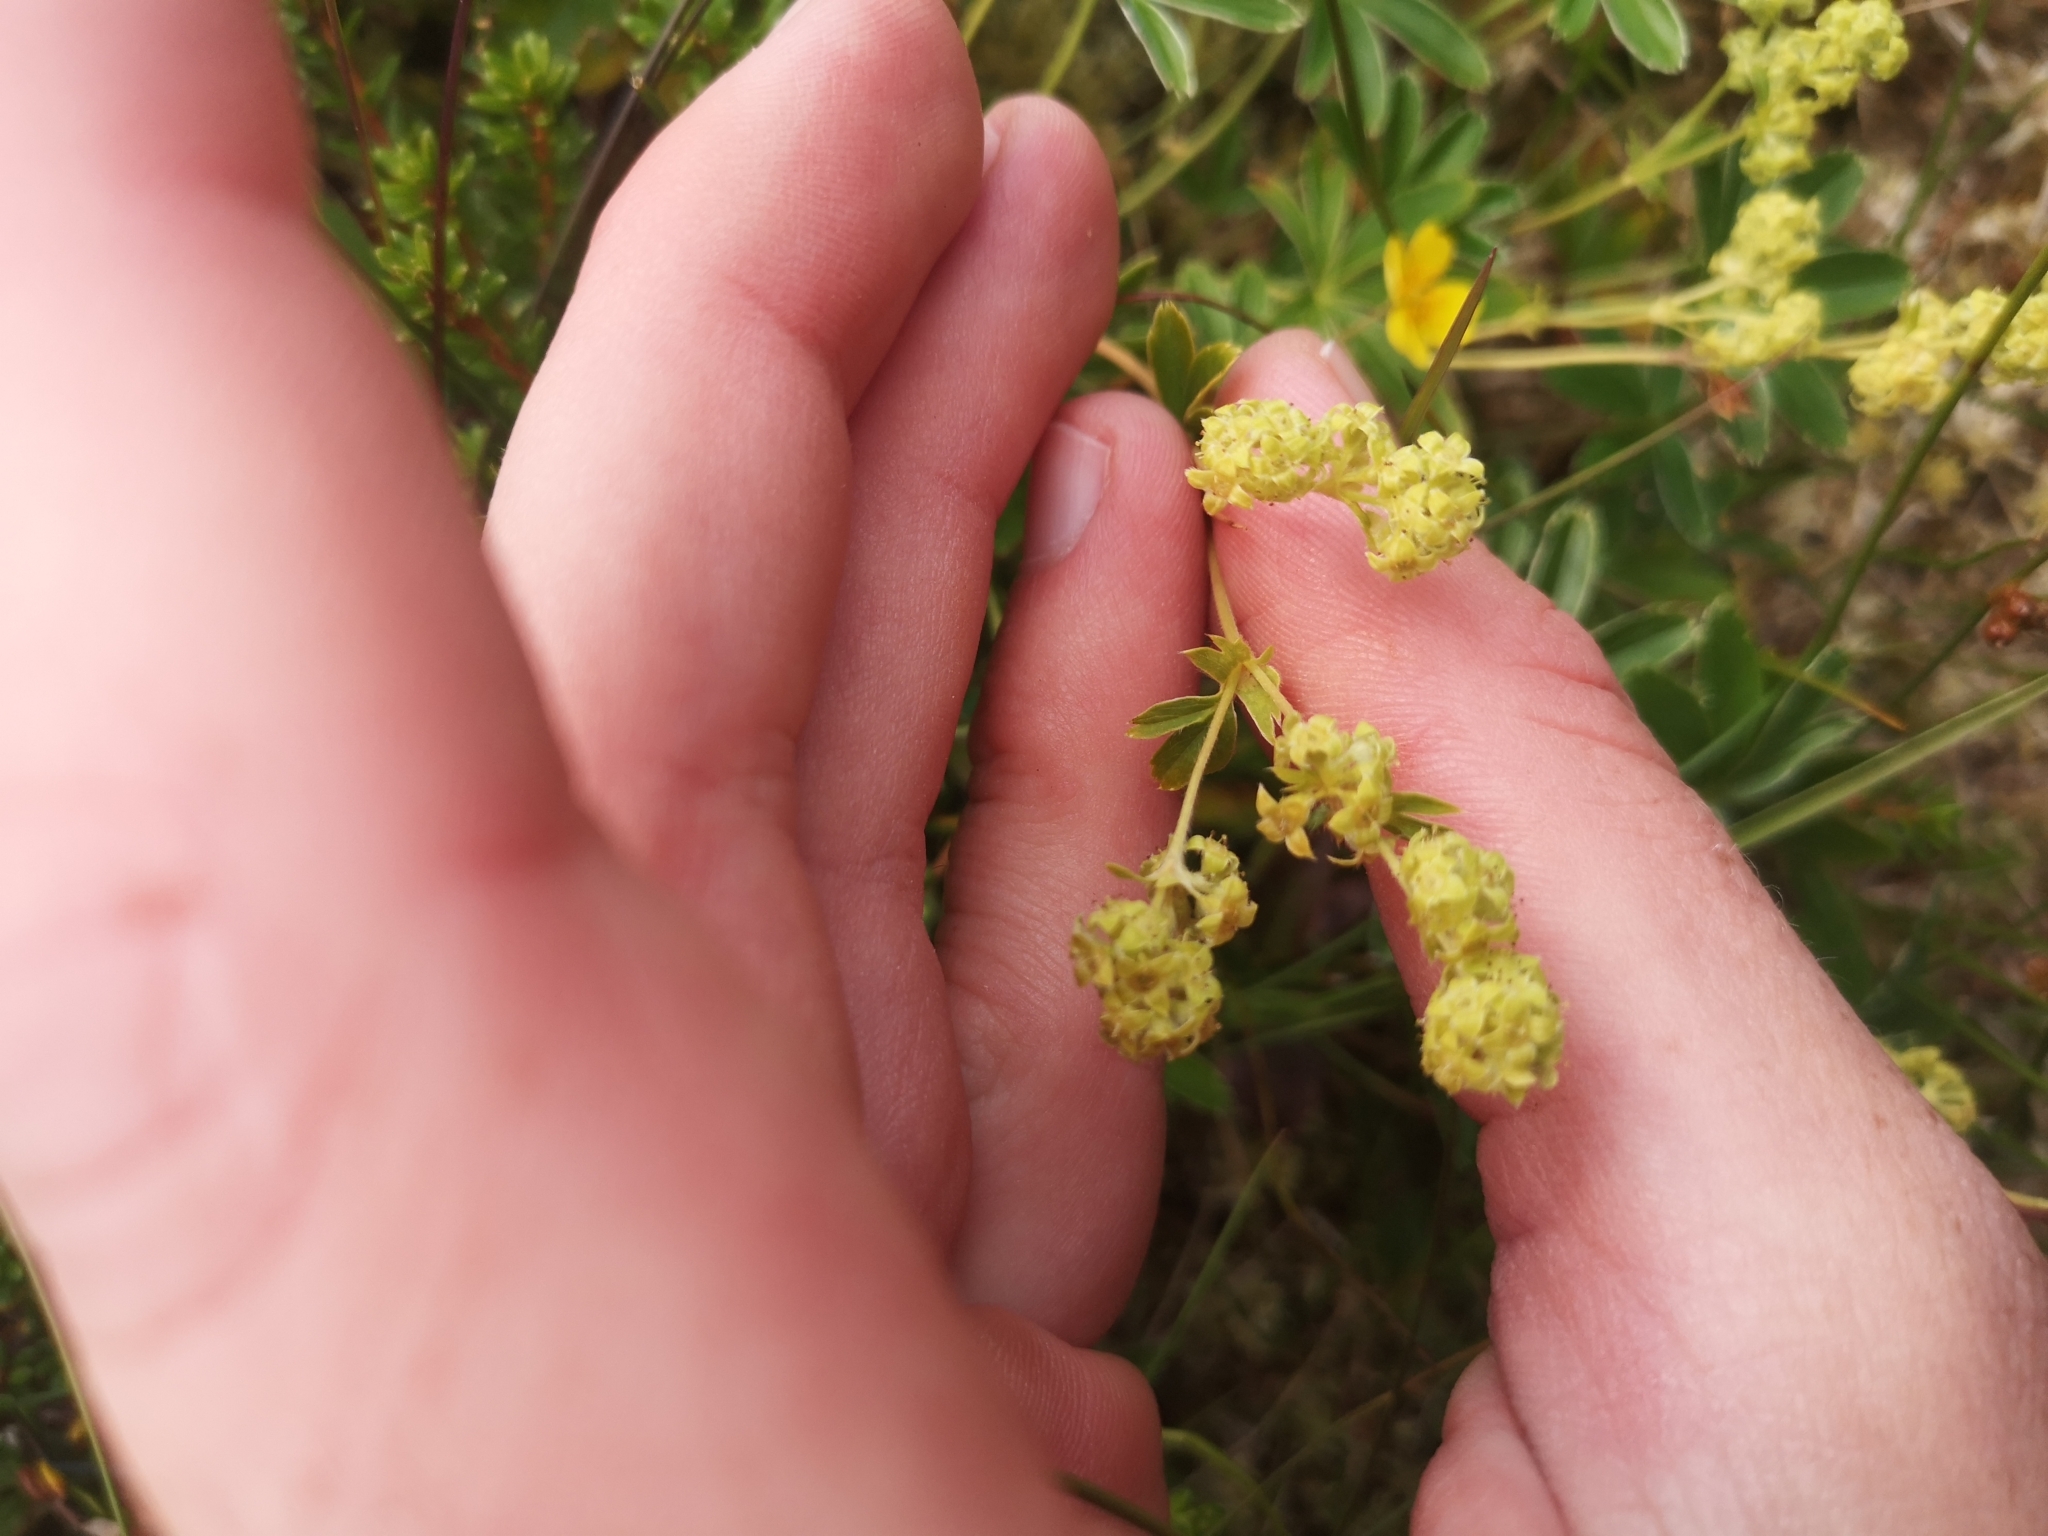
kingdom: Plantae
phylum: Tracheophyta
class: Magnoliopsida
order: Rosales
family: Rosaceae
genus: Alchemilla
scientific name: Alchemilla alpina
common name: Alpine lady's-mantle
